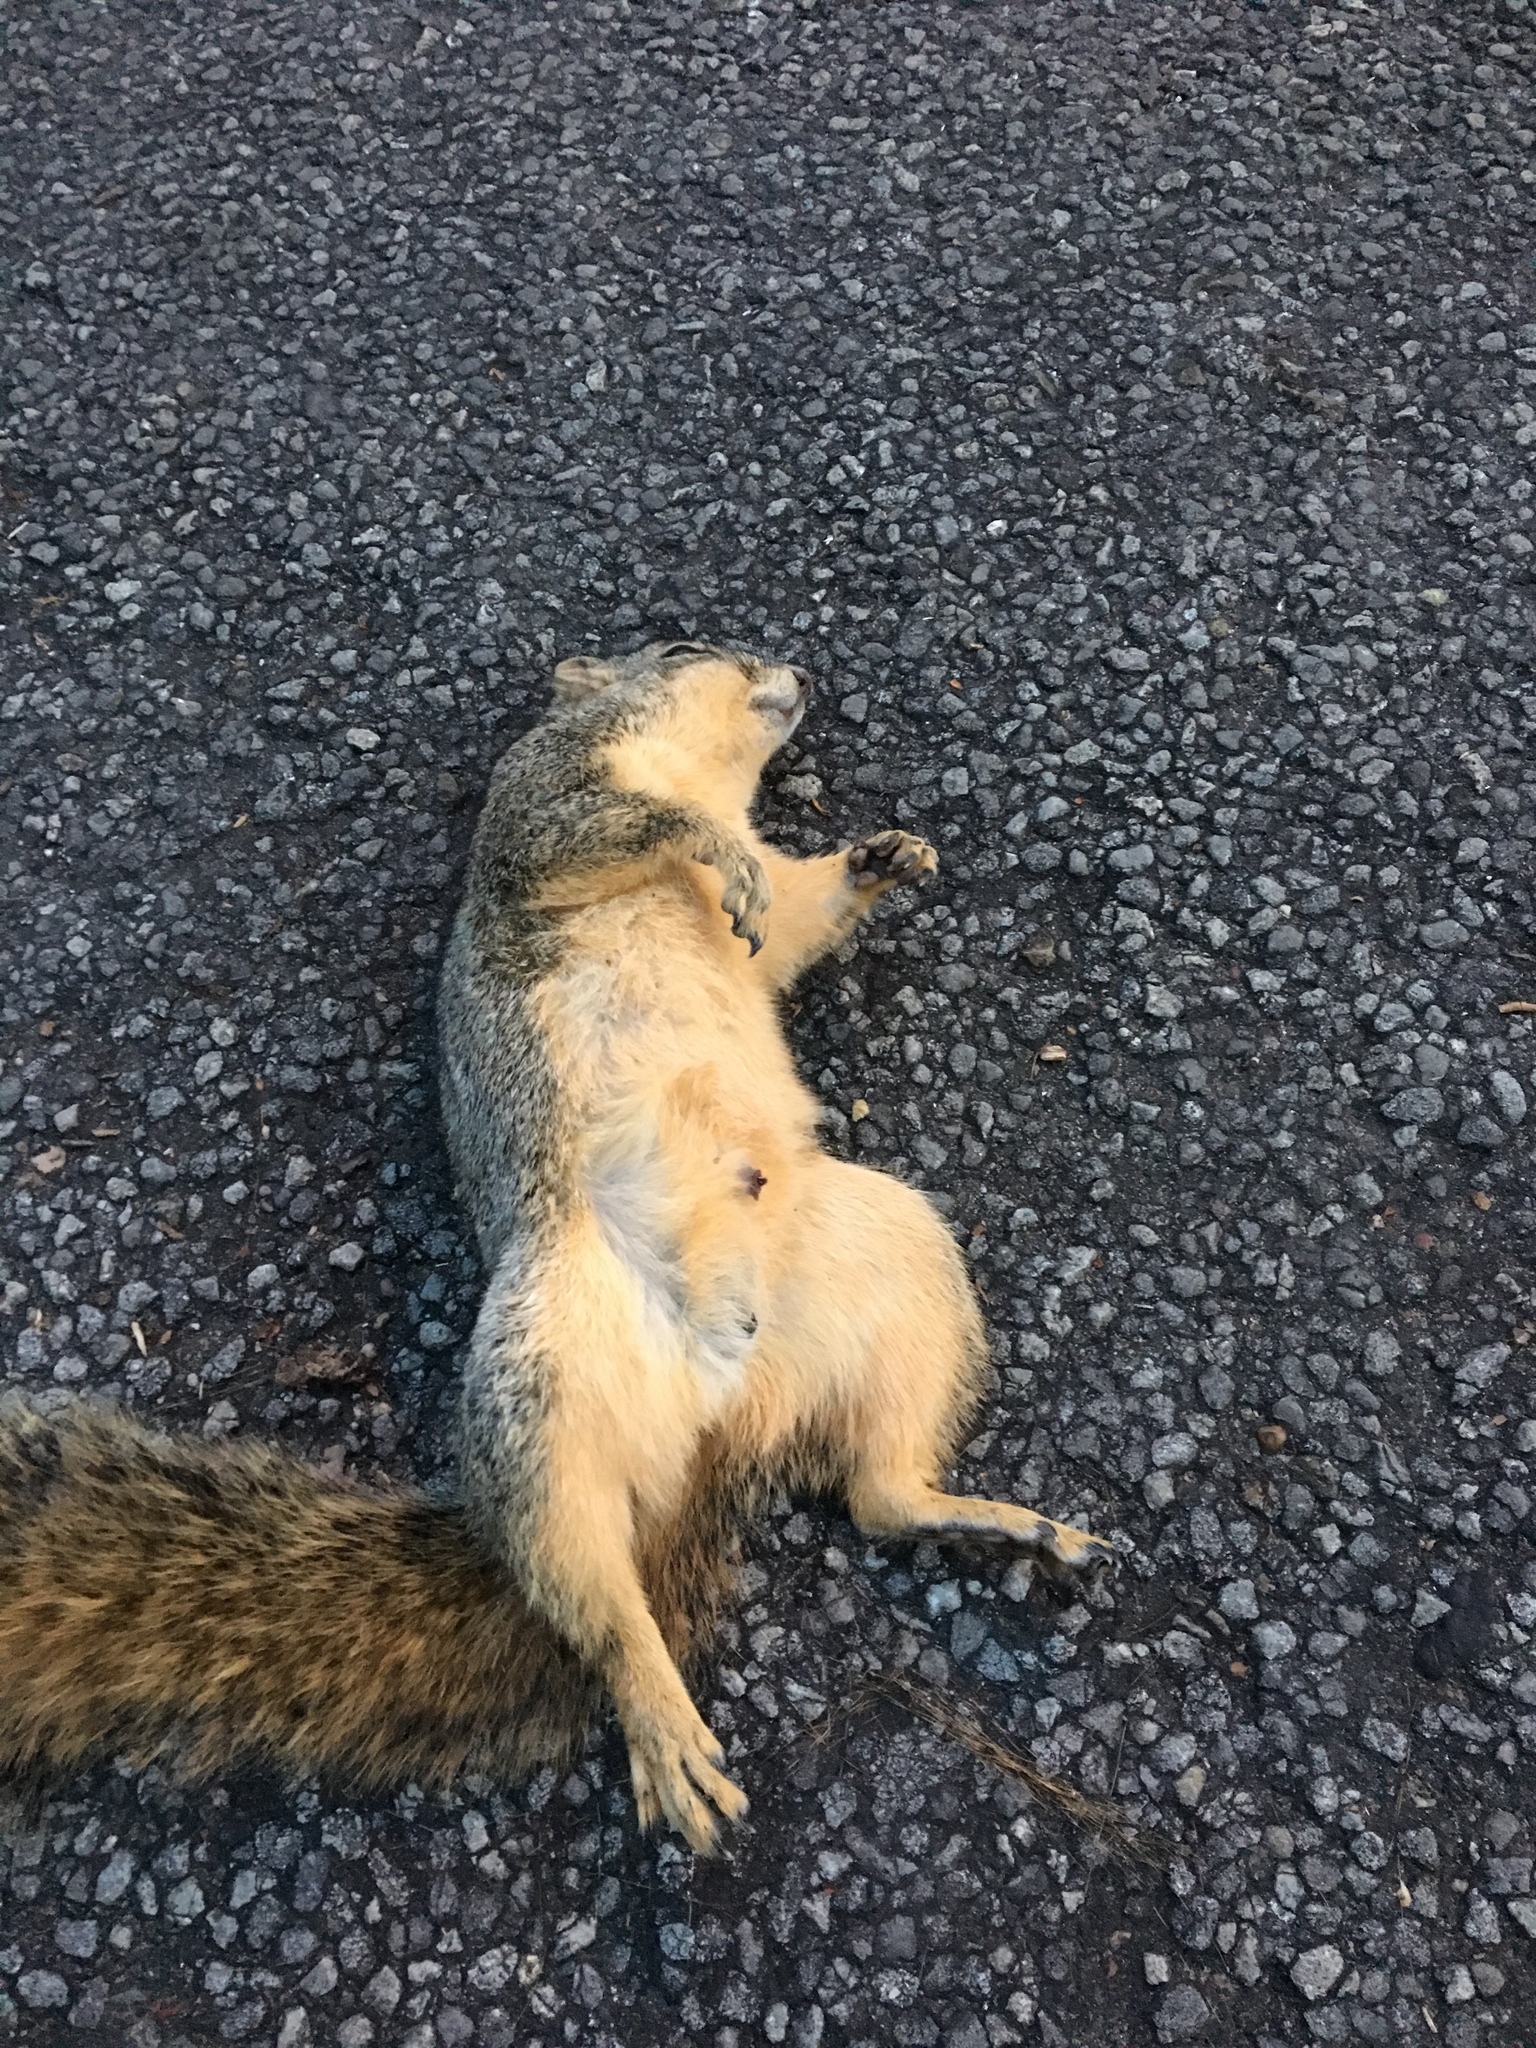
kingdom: Animalia
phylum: Chordata
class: Mammalia
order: Rodentia
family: Sciuridae
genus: Sciurus
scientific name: Sciurus niger
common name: Fox squirrel
